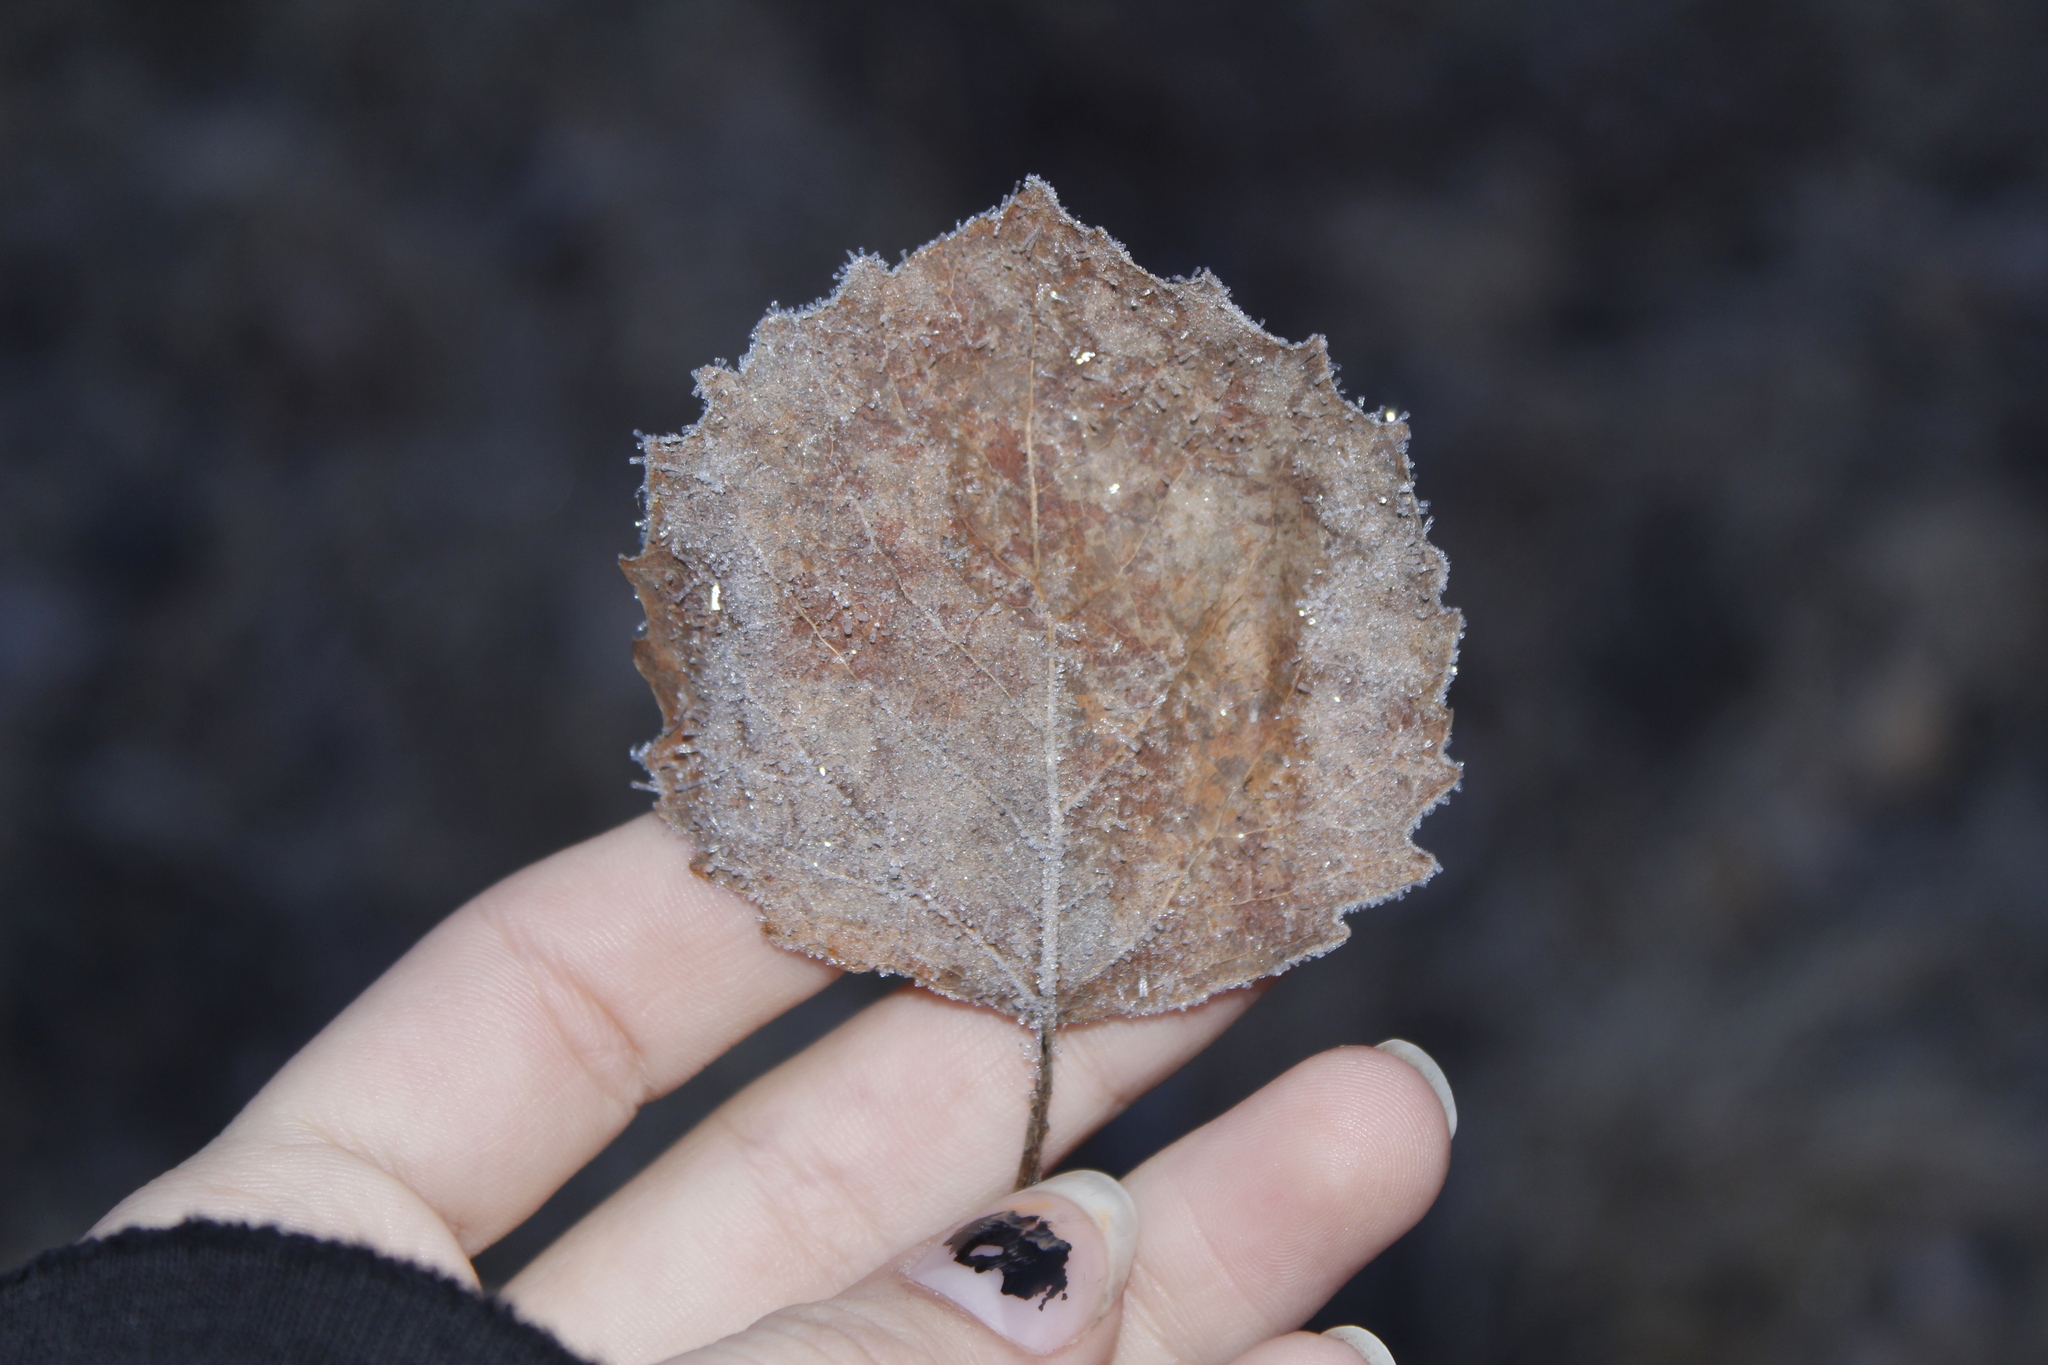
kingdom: Plantae
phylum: Tracheophyta
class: Magnoliopsida
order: Malpighiales
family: Salicaceae
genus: Populus
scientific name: Populus grandidentata
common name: Bigtooth aspen
